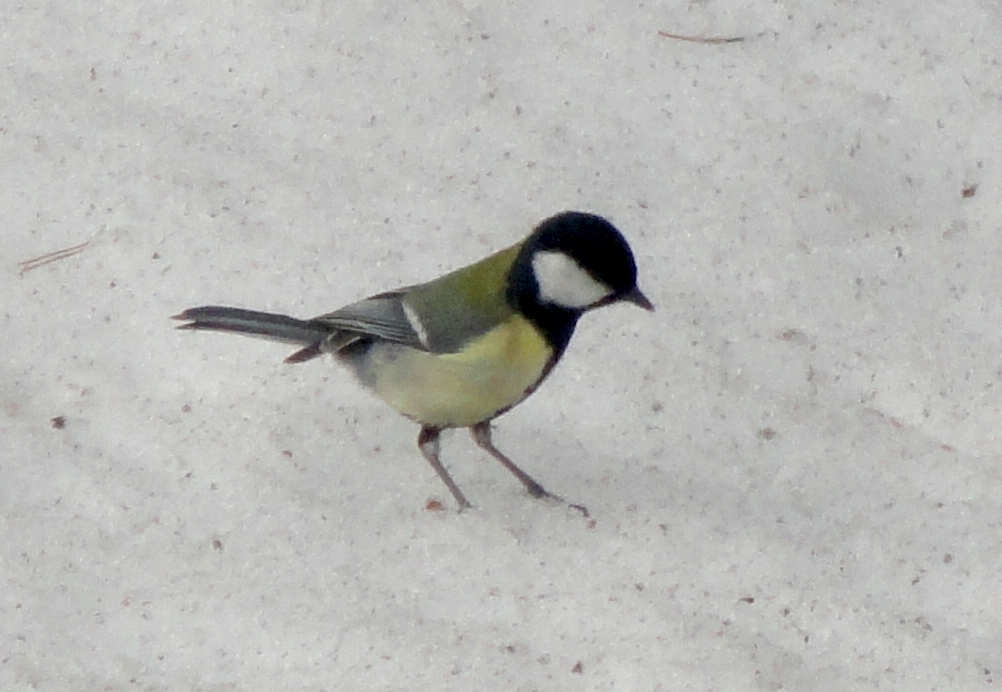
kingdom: Animalia
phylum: Chordata
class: Aves
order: Passeriformes
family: Paridae
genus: Parus
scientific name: Parus major
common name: Great tit
